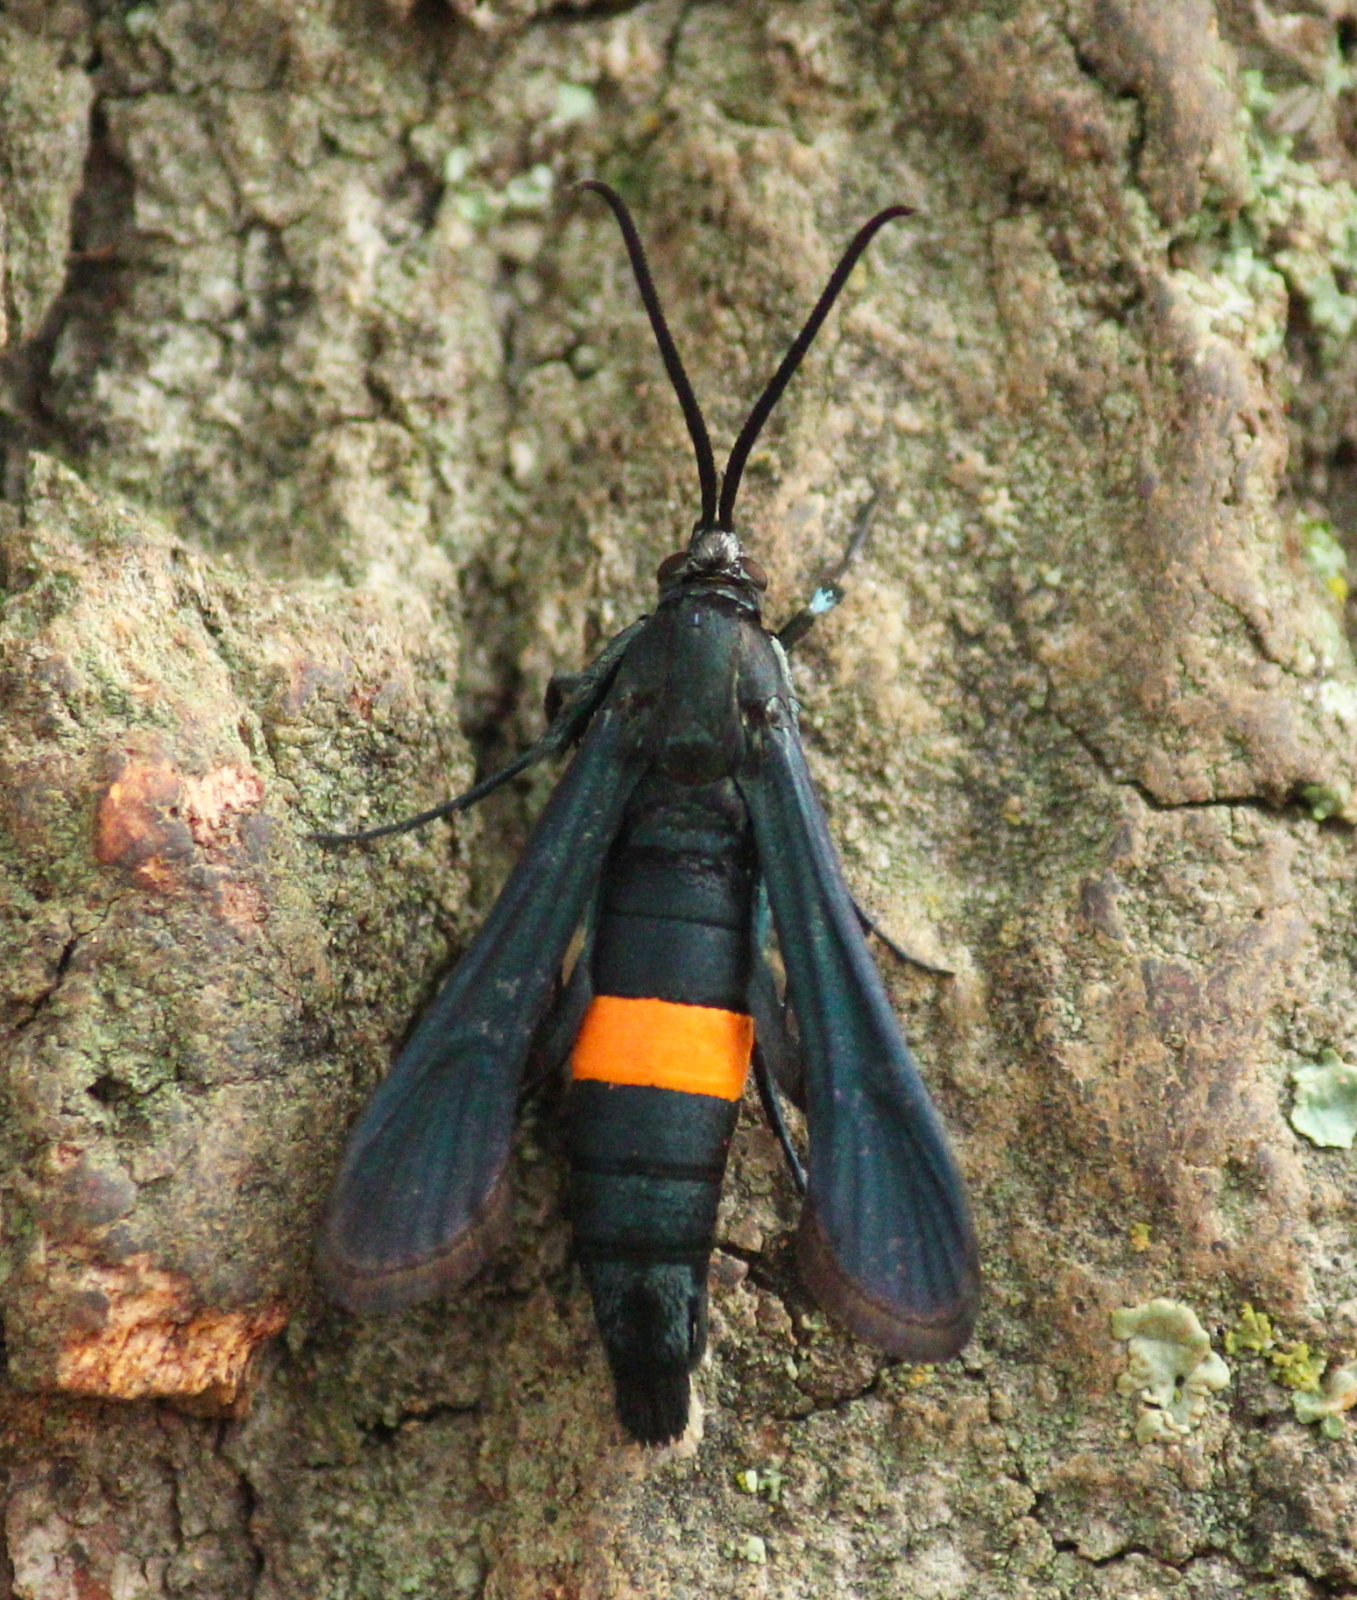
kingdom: Animalia
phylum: Arthropoda
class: Insecta
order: Lepidoptera
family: Sesiidae
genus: Synanthedon
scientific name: Synanthedon exitiosa
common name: Peachtree borer moth
